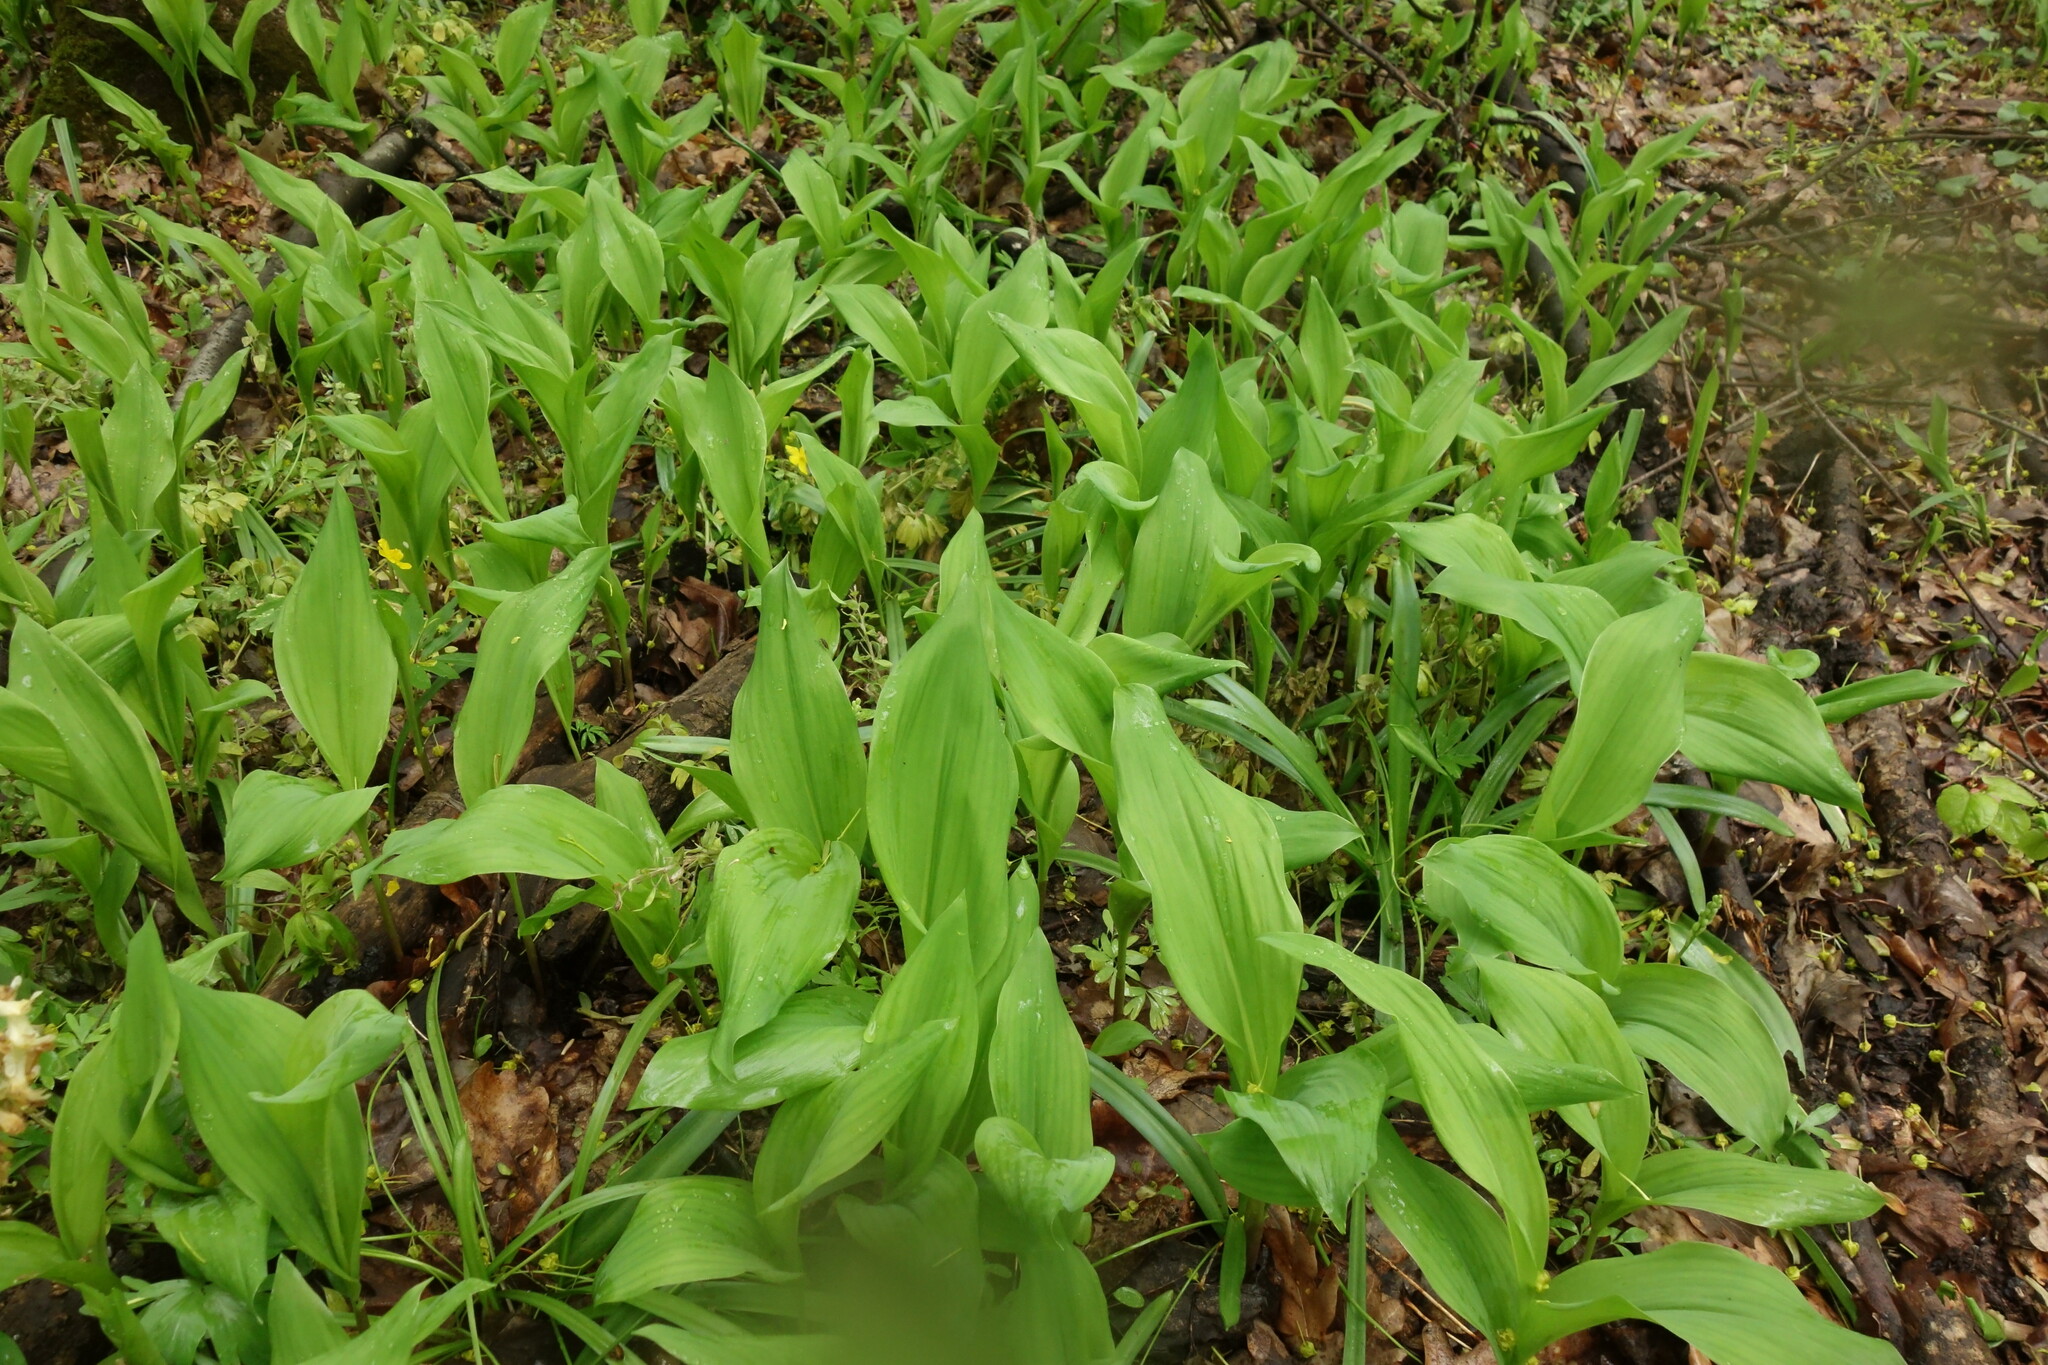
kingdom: Plantae
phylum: Tracheophyta
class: Liliopsida
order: Asparagales
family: Asparagaceae
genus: Convallaria
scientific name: Convallaria majalis
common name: Lily-of-the-valley
